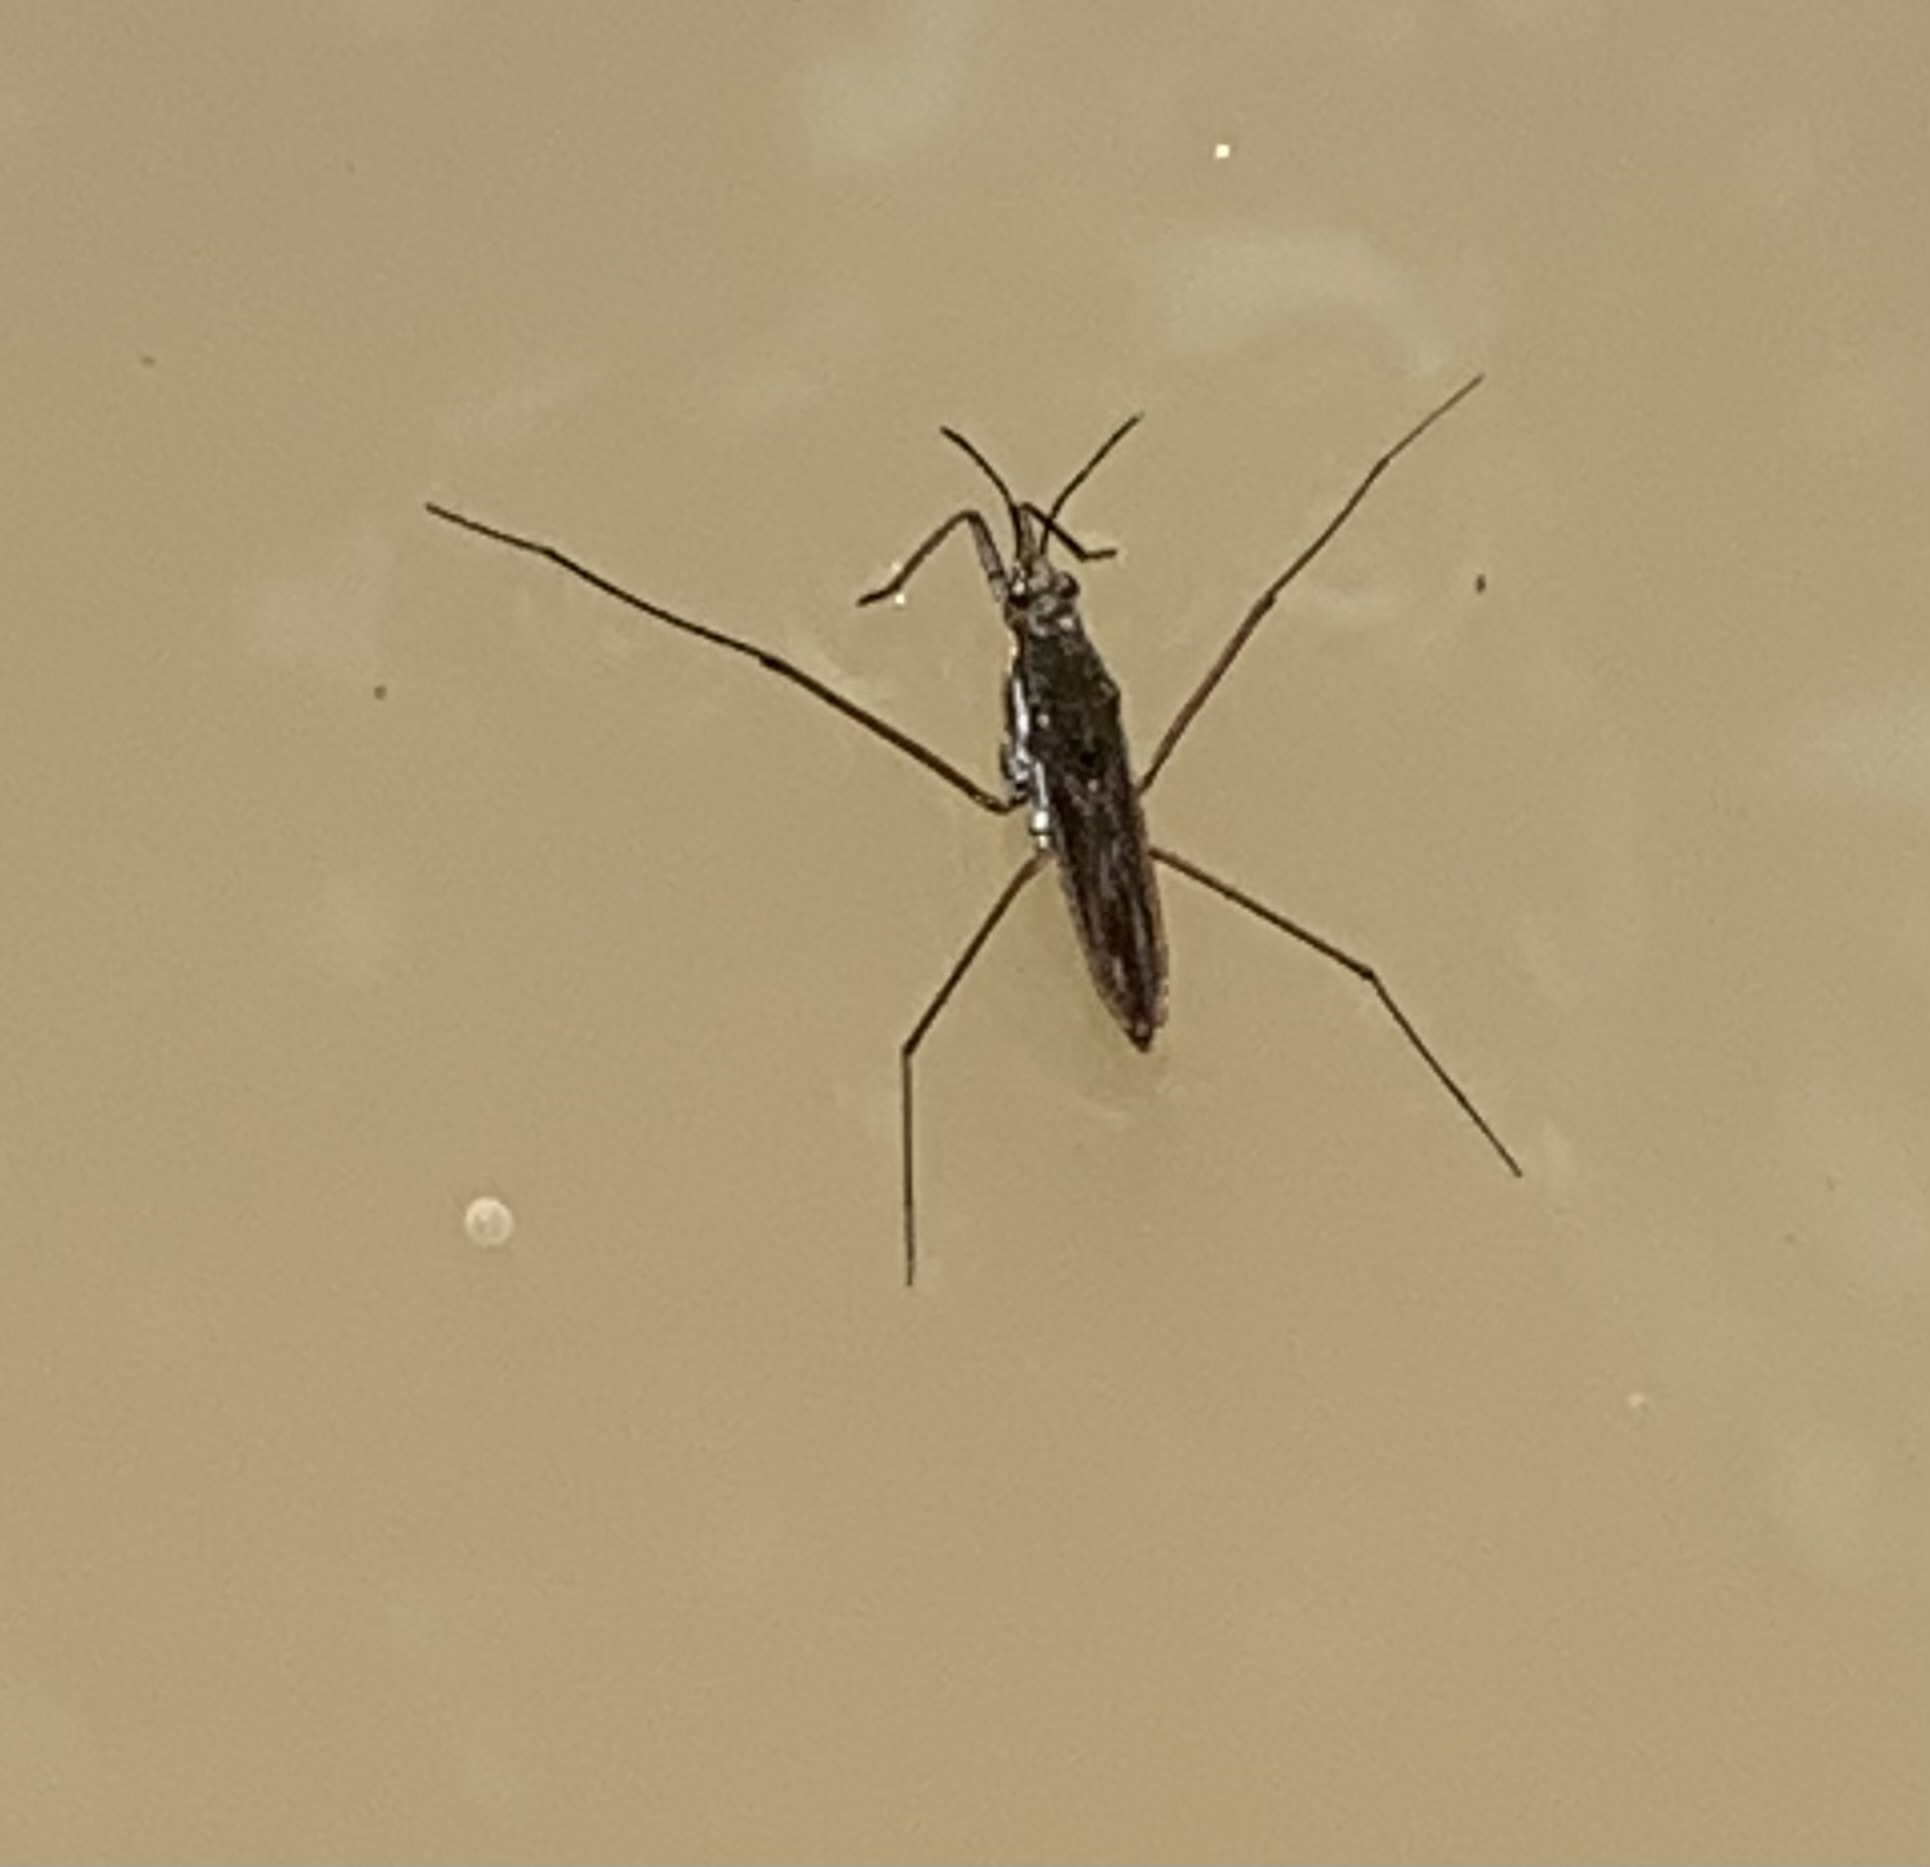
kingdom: Animalia
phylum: Arthropoda
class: Insecta
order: Hemiptera
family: Gerridae
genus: Gerris
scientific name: Gerris
